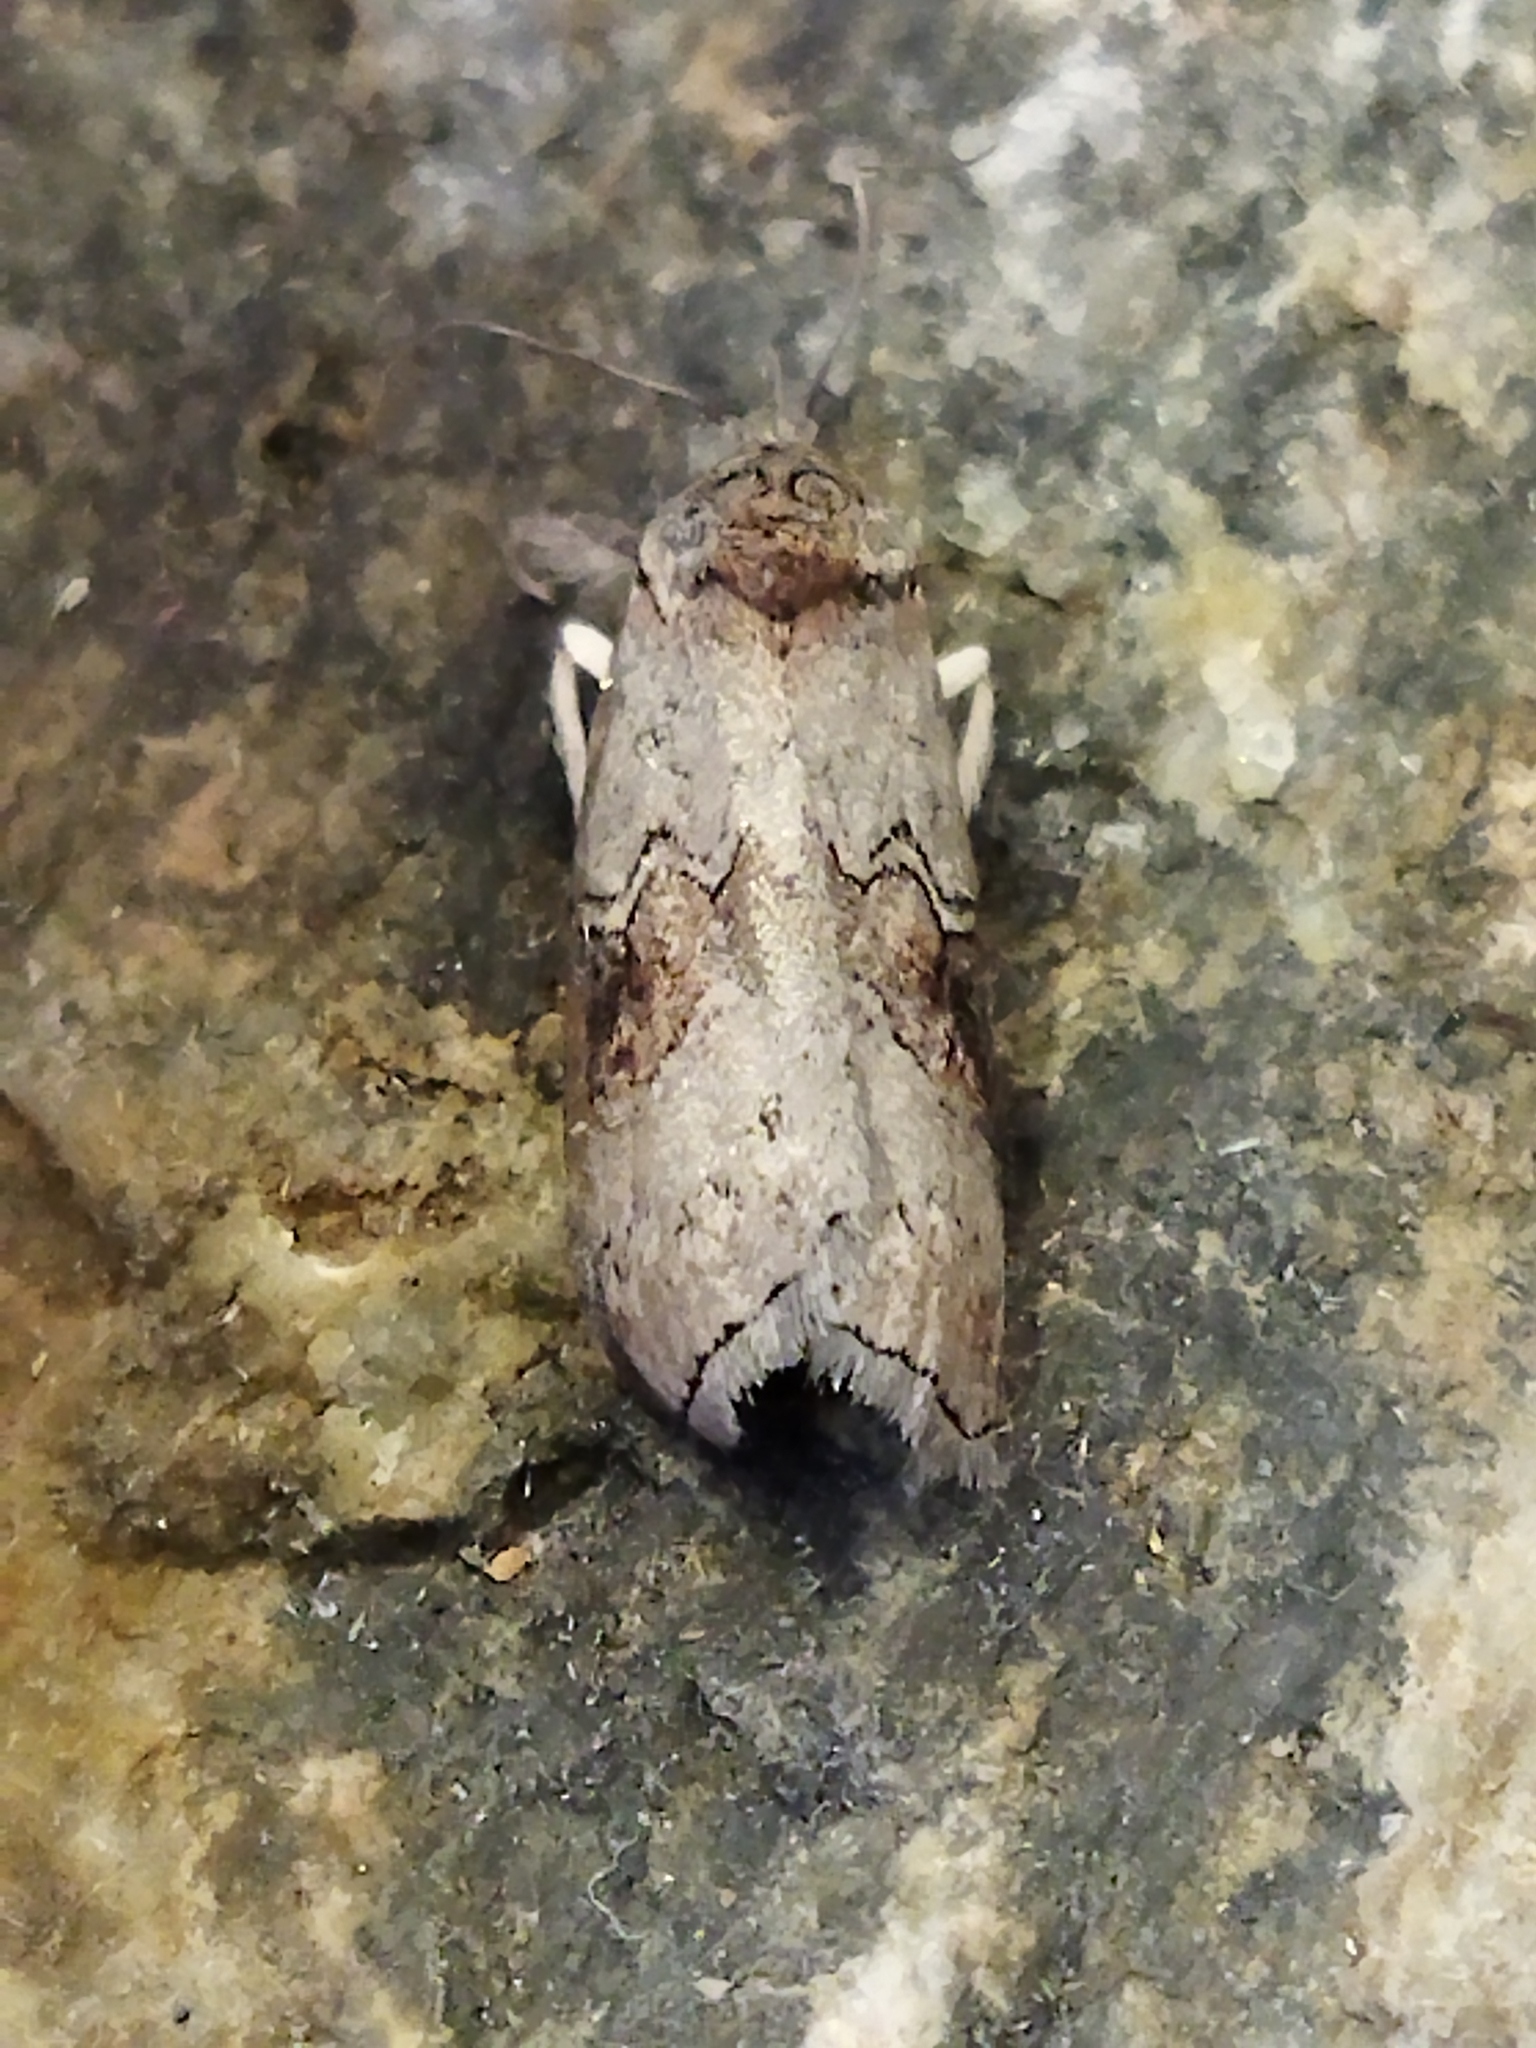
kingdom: Animalia
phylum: Arthropoda
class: Insecta
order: Lepidoptera
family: Nolidae
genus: Nycteola
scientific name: Nycteola asiatica
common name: Eastern nycteoline
